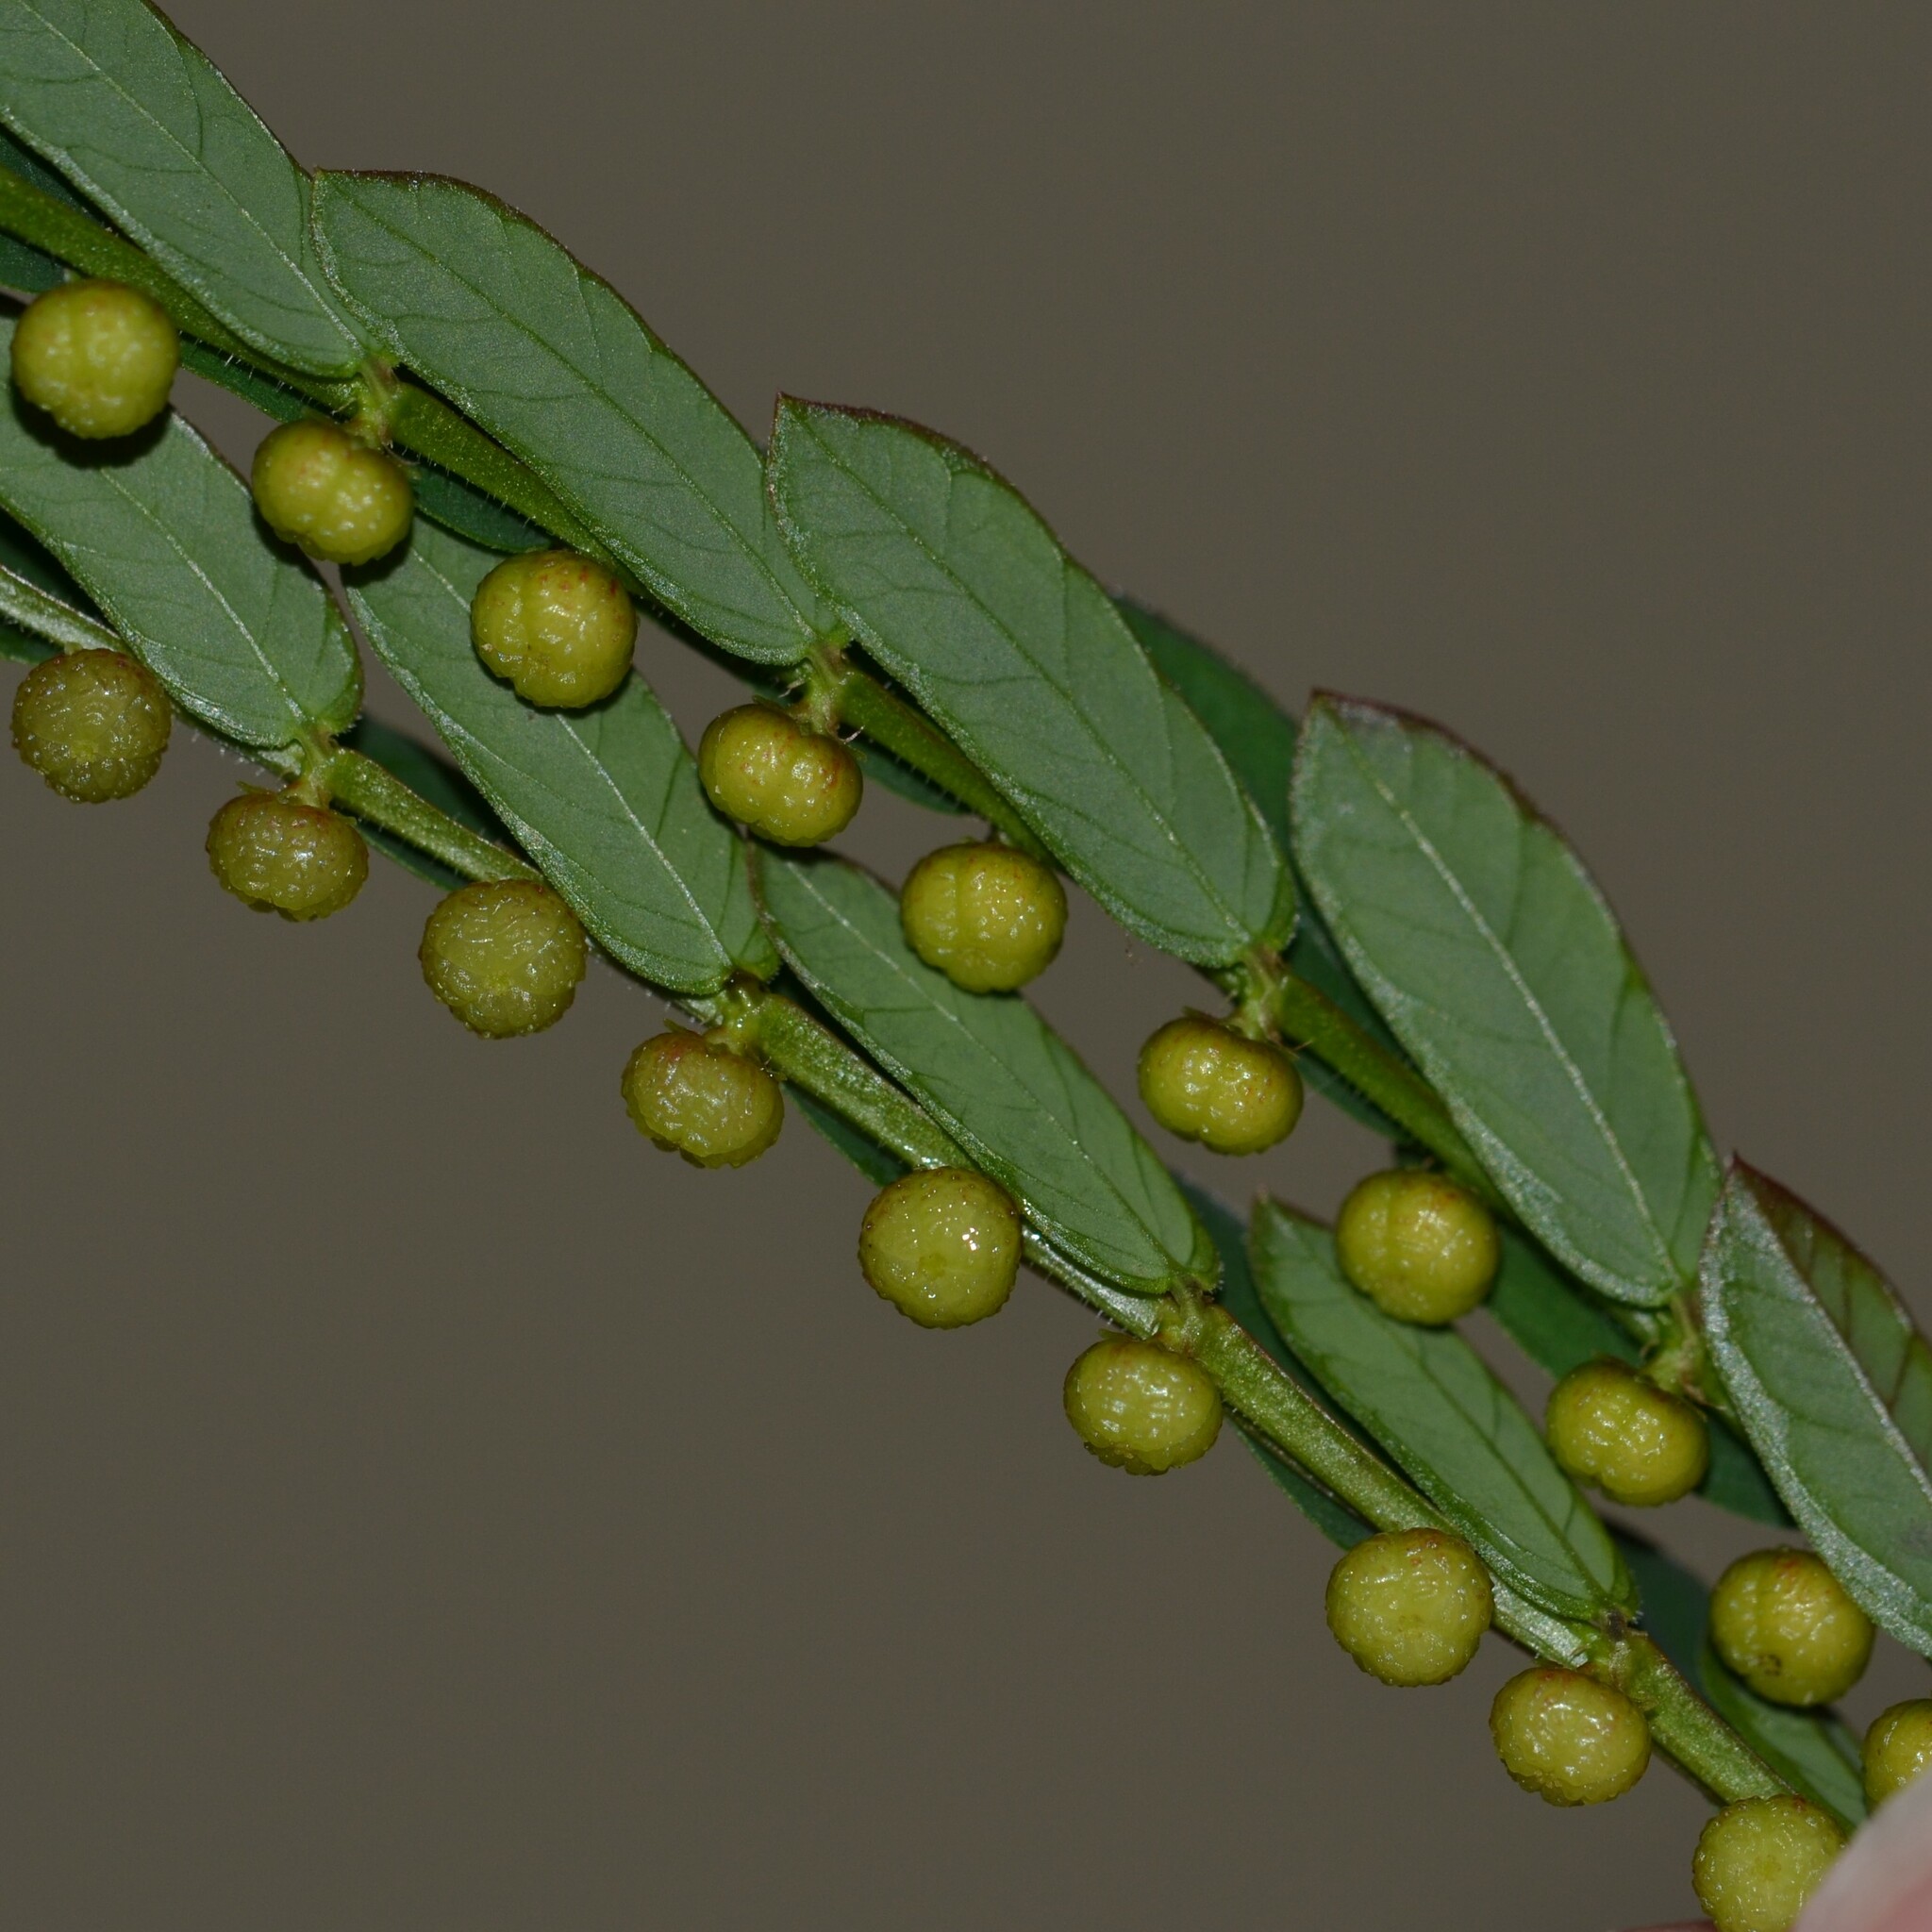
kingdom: Plantae
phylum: Tracheophyta
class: Magnoliopsida
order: Malpighiales
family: Phyllanthaceae
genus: Phyllanthus
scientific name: Phyllanthus urinaria
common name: Chamber bitter
